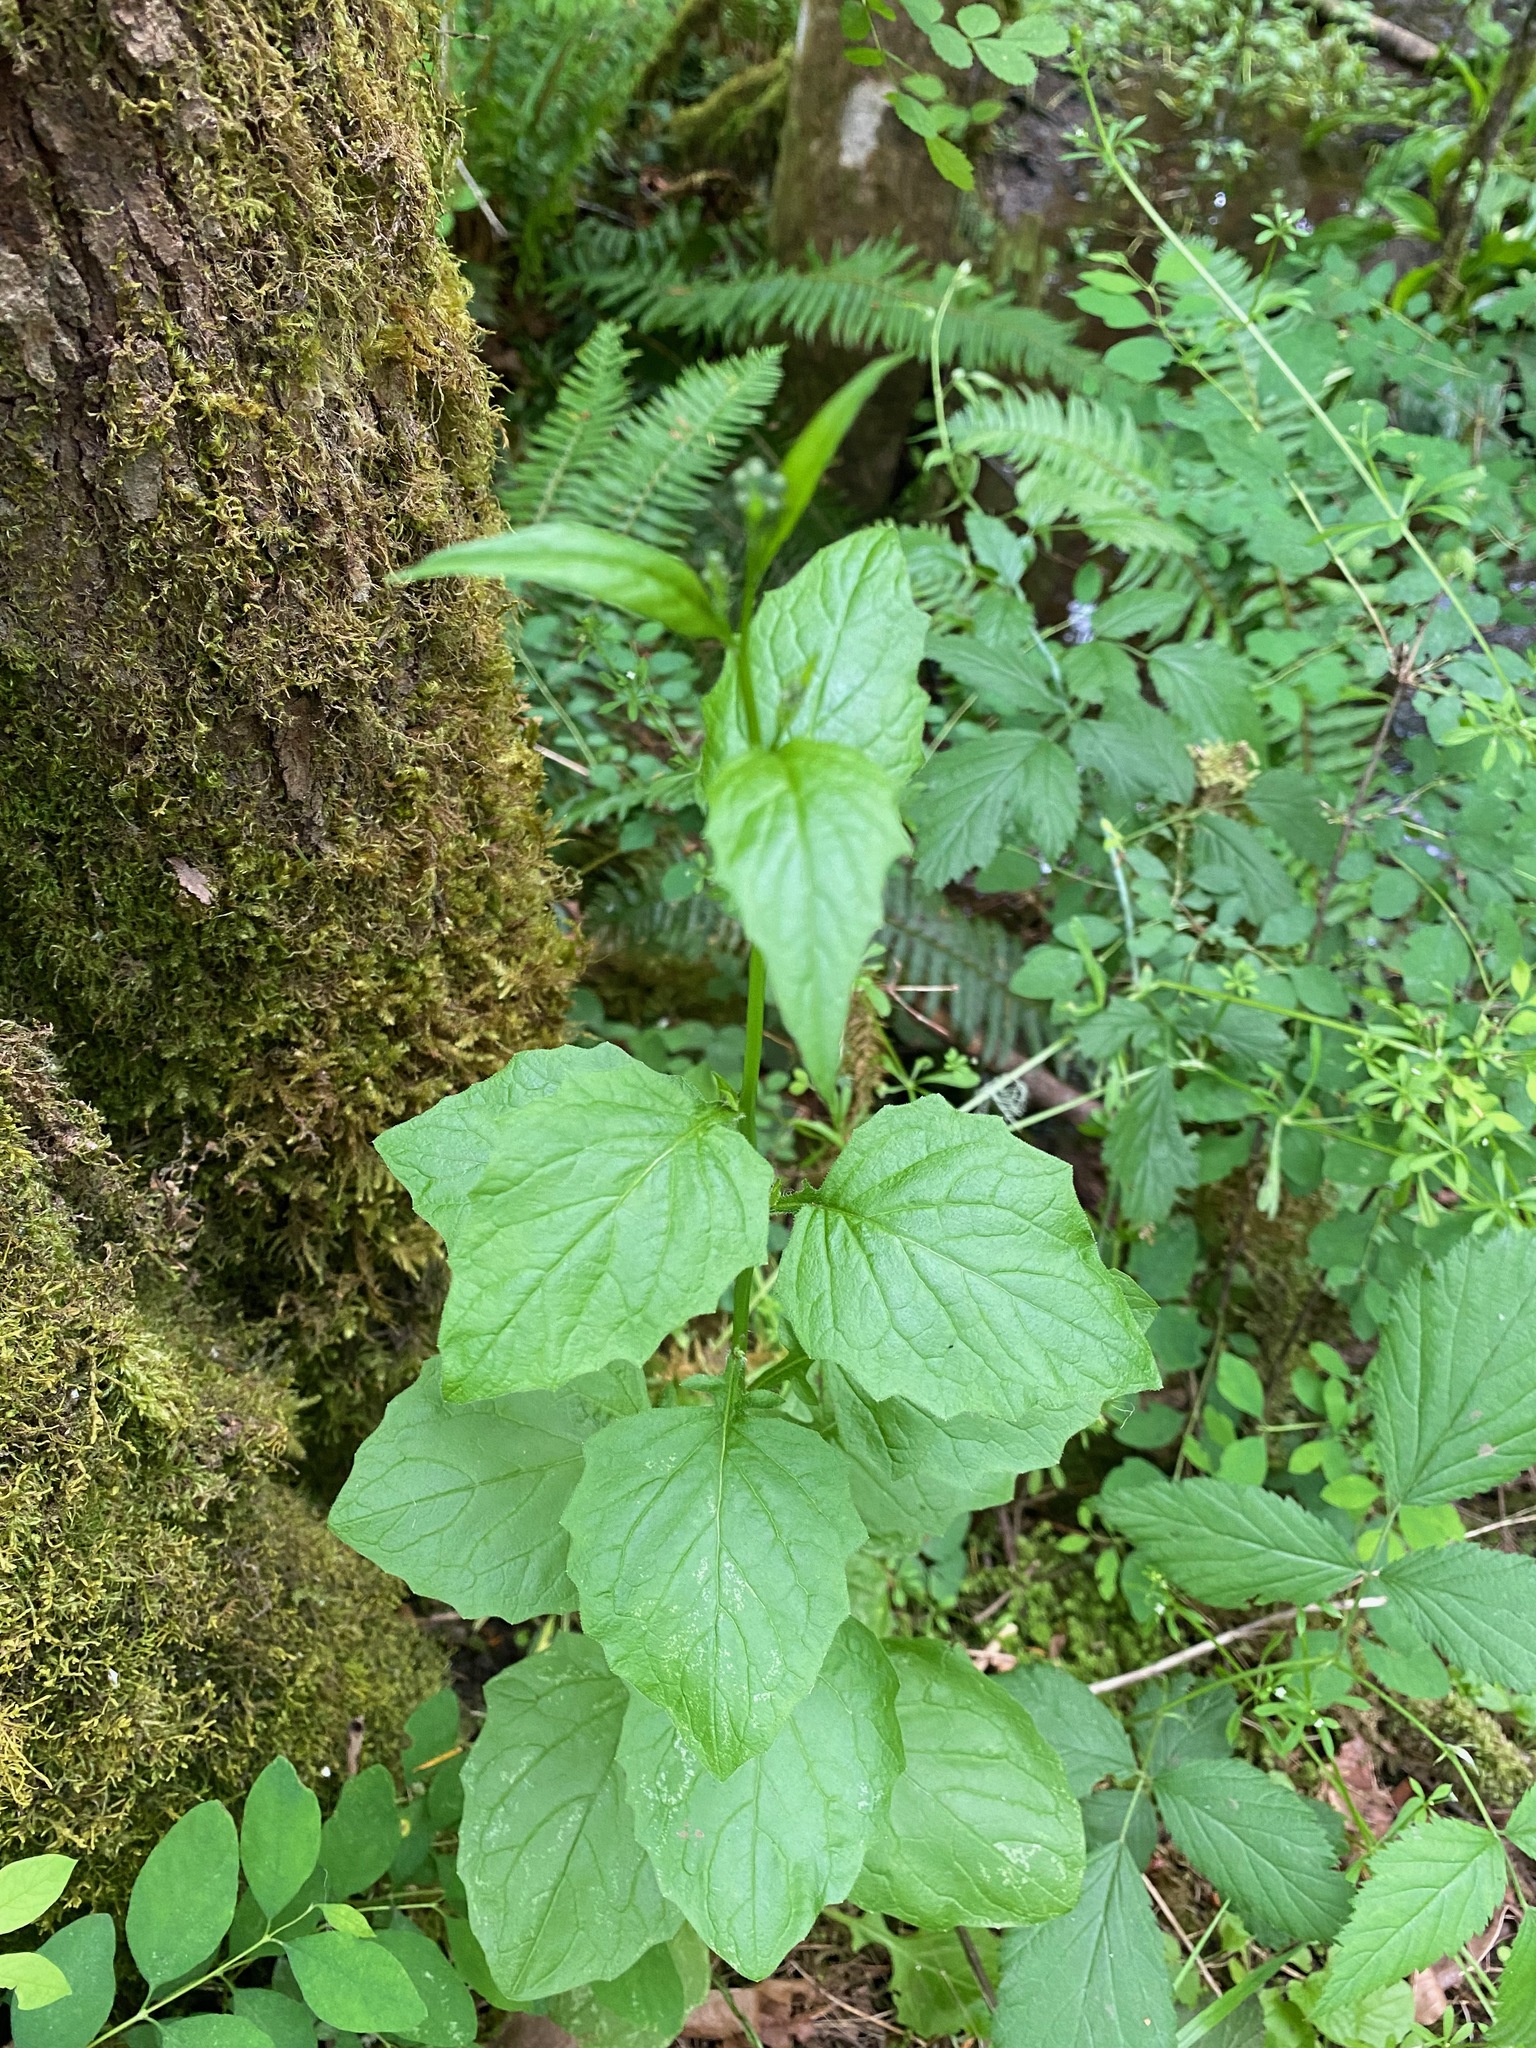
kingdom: Plantae
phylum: Tracheophyta
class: Magnoliopsida
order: Asterales
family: Asteraceae
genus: Lapsana
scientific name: Lapsana communis
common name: Nipplewort
